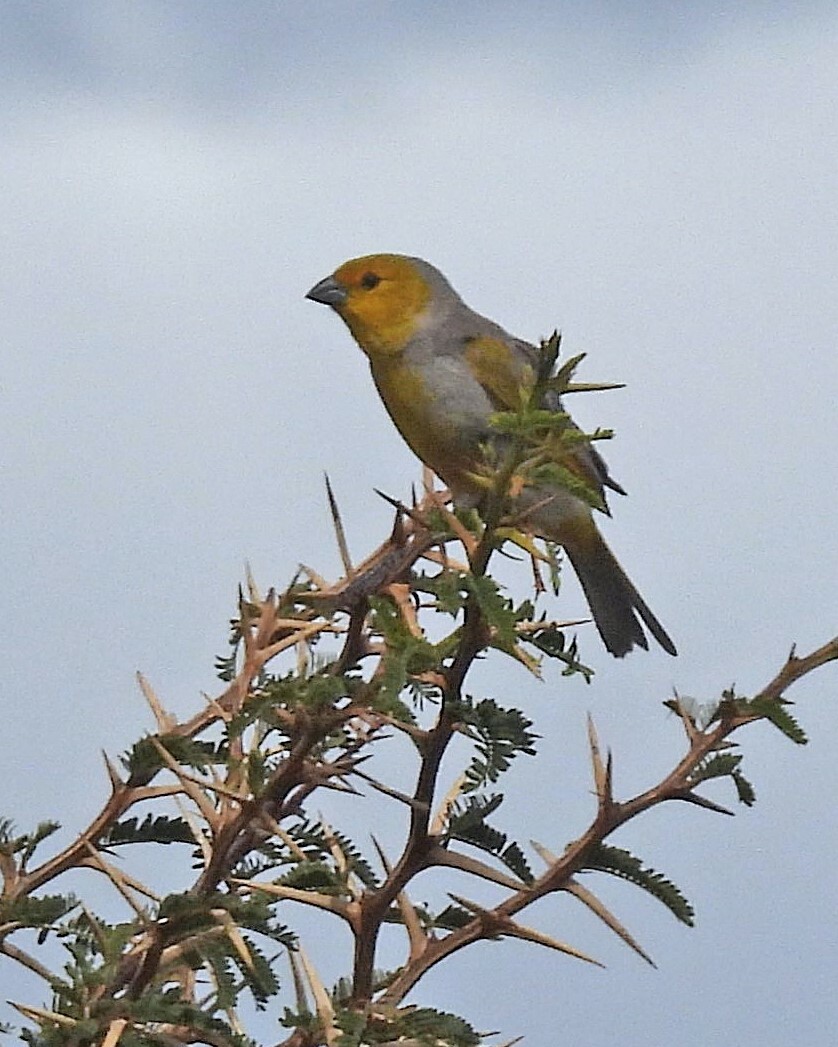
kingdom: Animalia
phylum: Chordata
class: Aves
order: Passeriformes
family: Thraupidae
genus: Sicalis
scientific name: Sicalis luteocephala
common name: Citron-headed yellow finch
